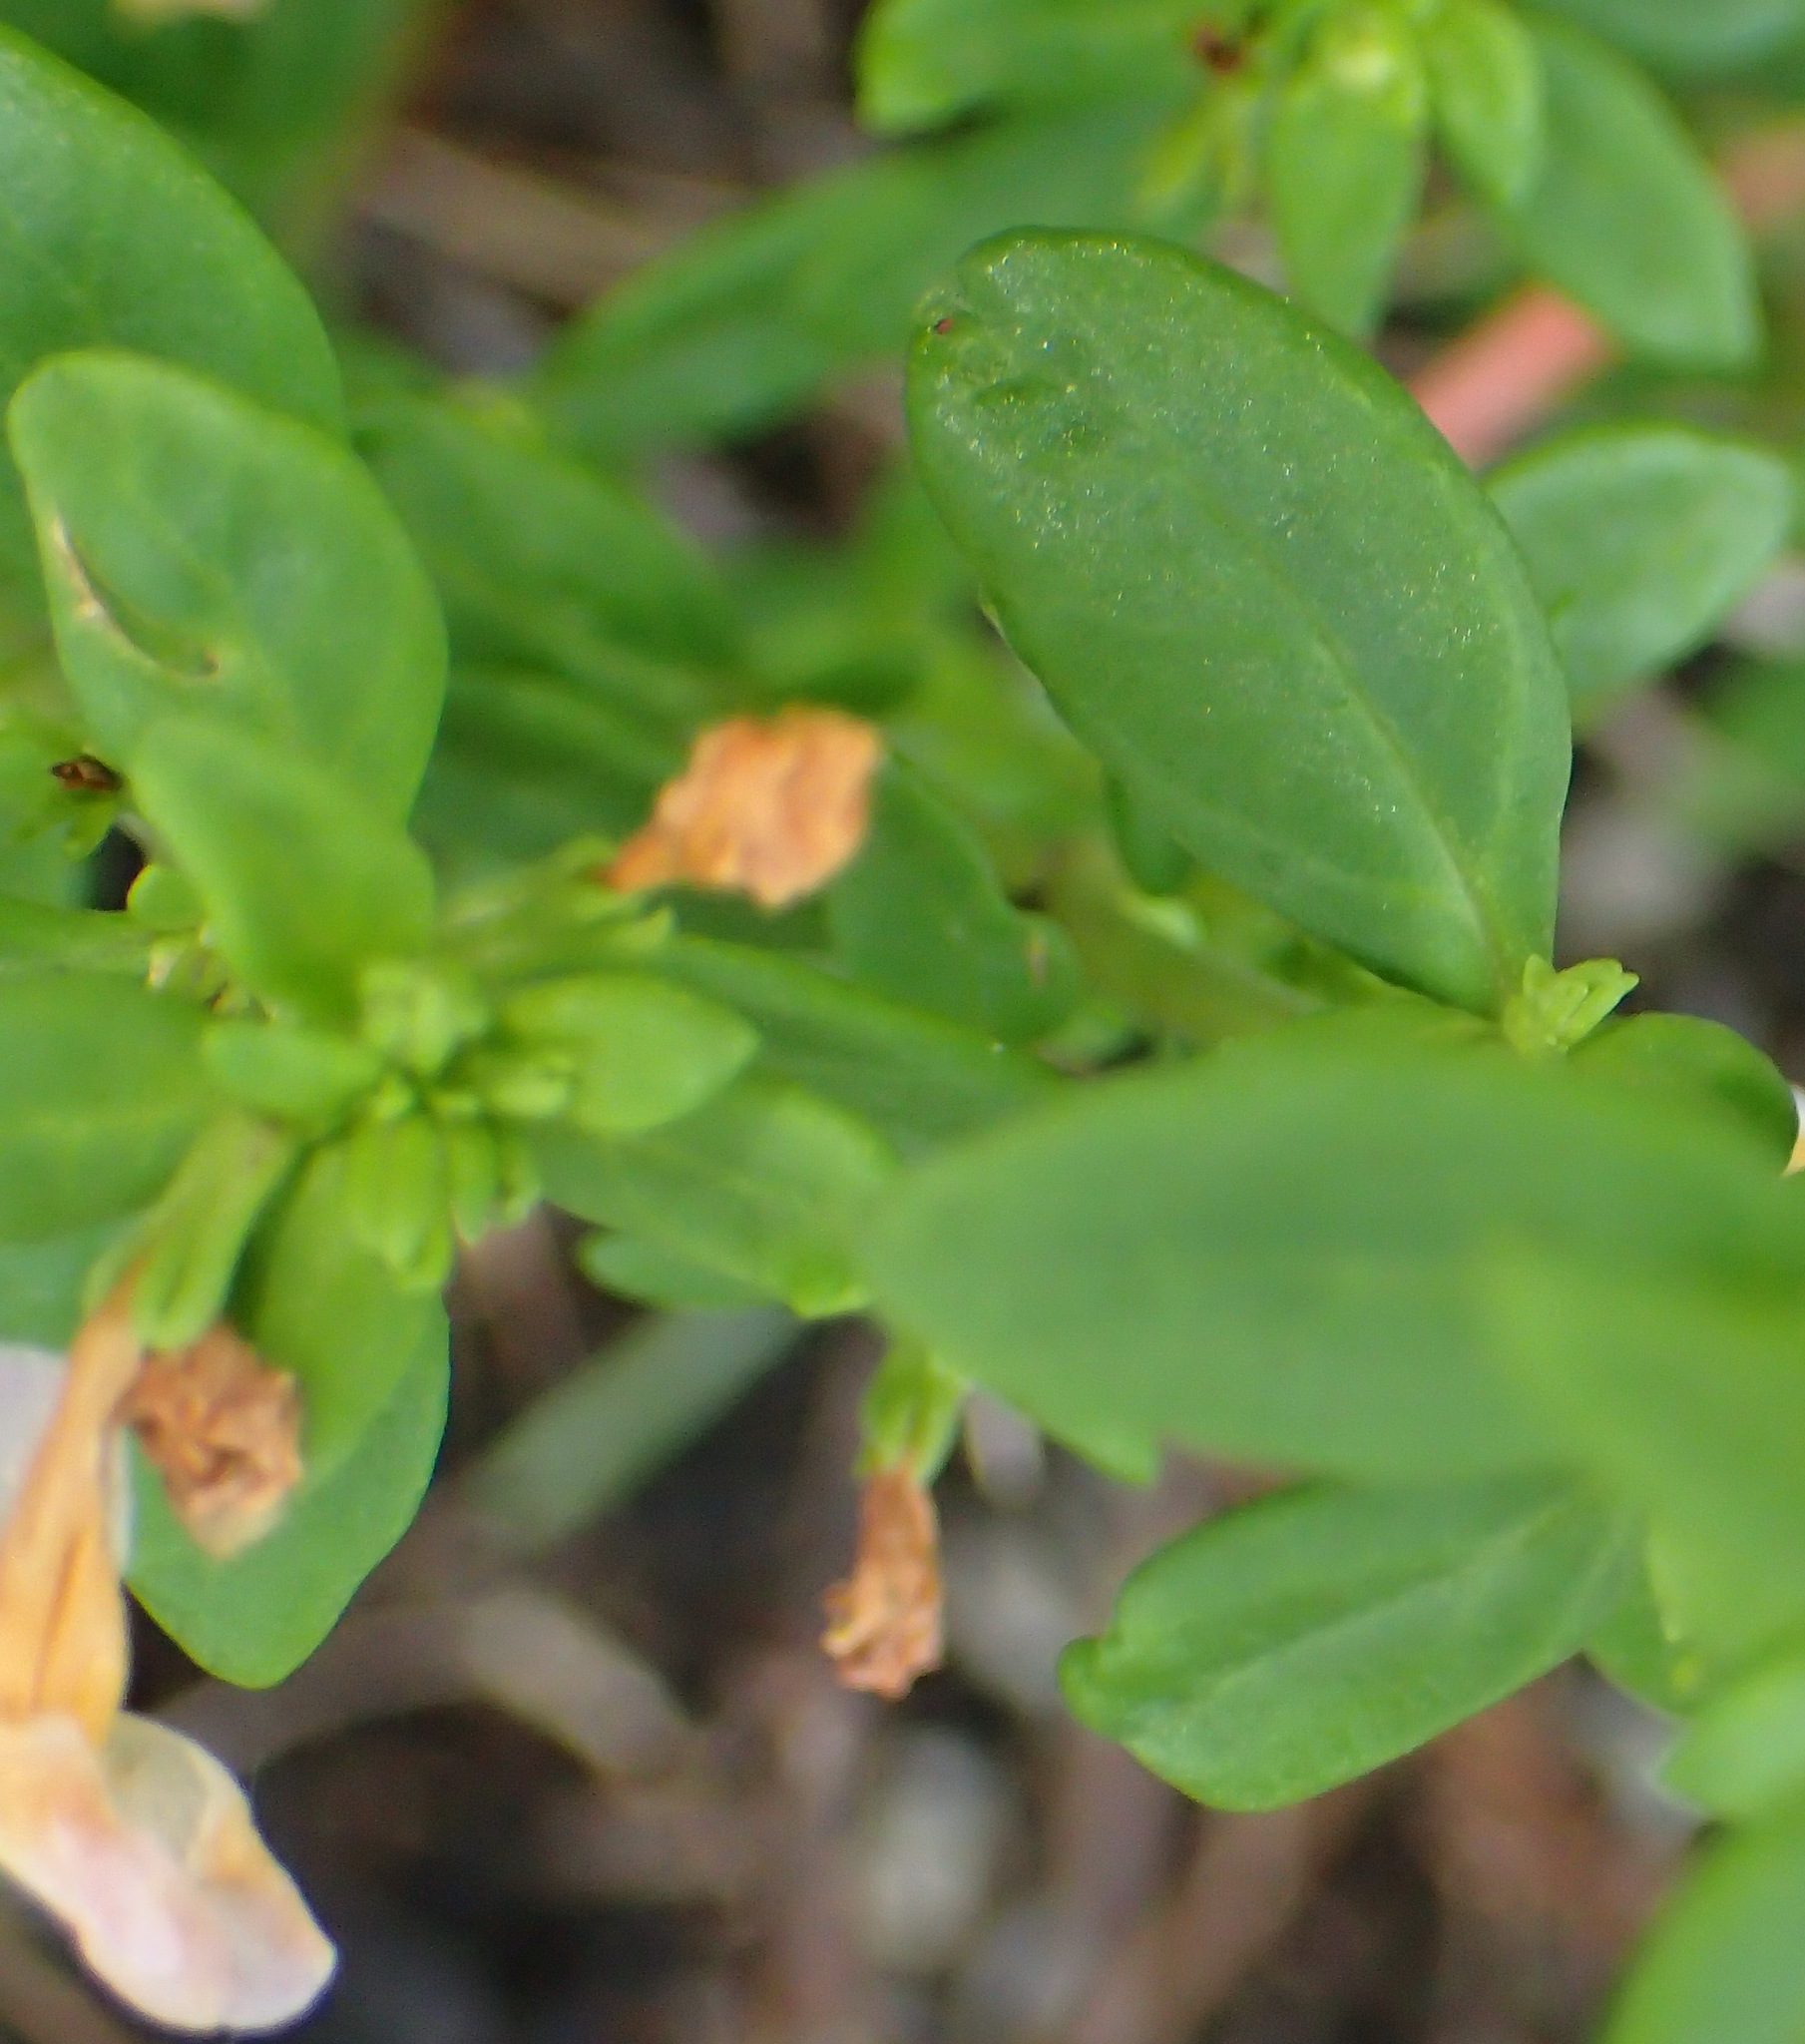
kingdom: Plantae
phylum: Tracheophyta
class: Magnoliopsida
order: Lamiales
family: Scrophulariaceae
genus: Chaenostoma
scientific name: Chaenostoma integrifolium
